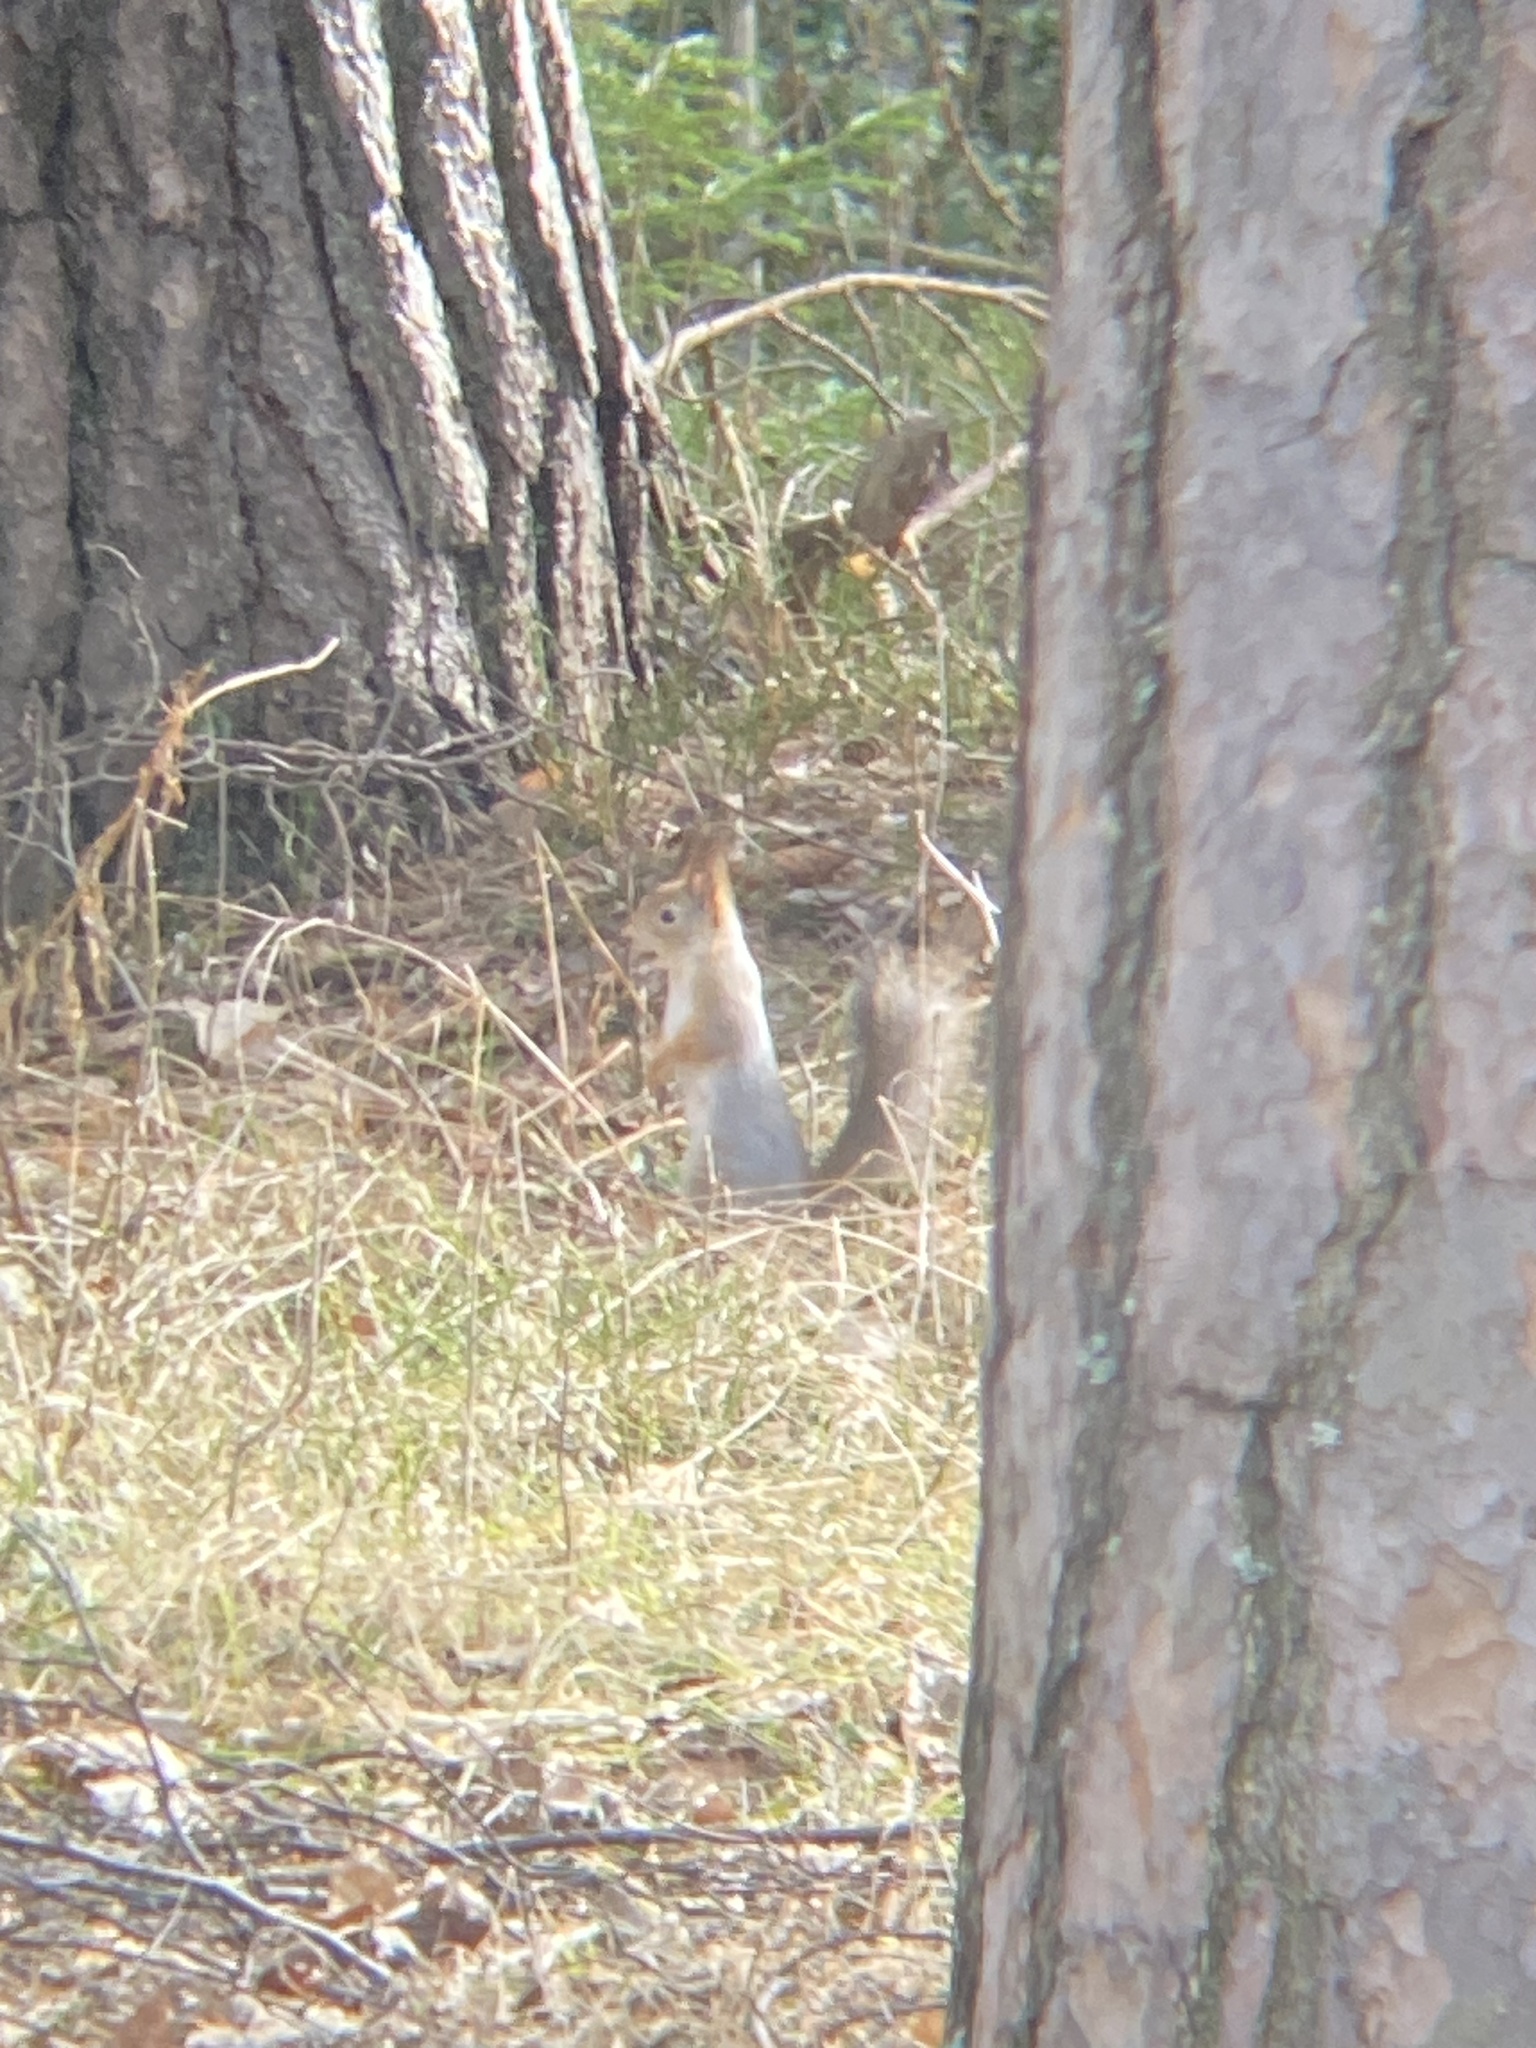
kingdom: Animalia
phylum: Chordata
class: Mammalia
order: Rodentia
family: Sciuridae
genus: Sciurus
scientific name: Sciurus vulgaris
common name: Eurasian red squirrel
